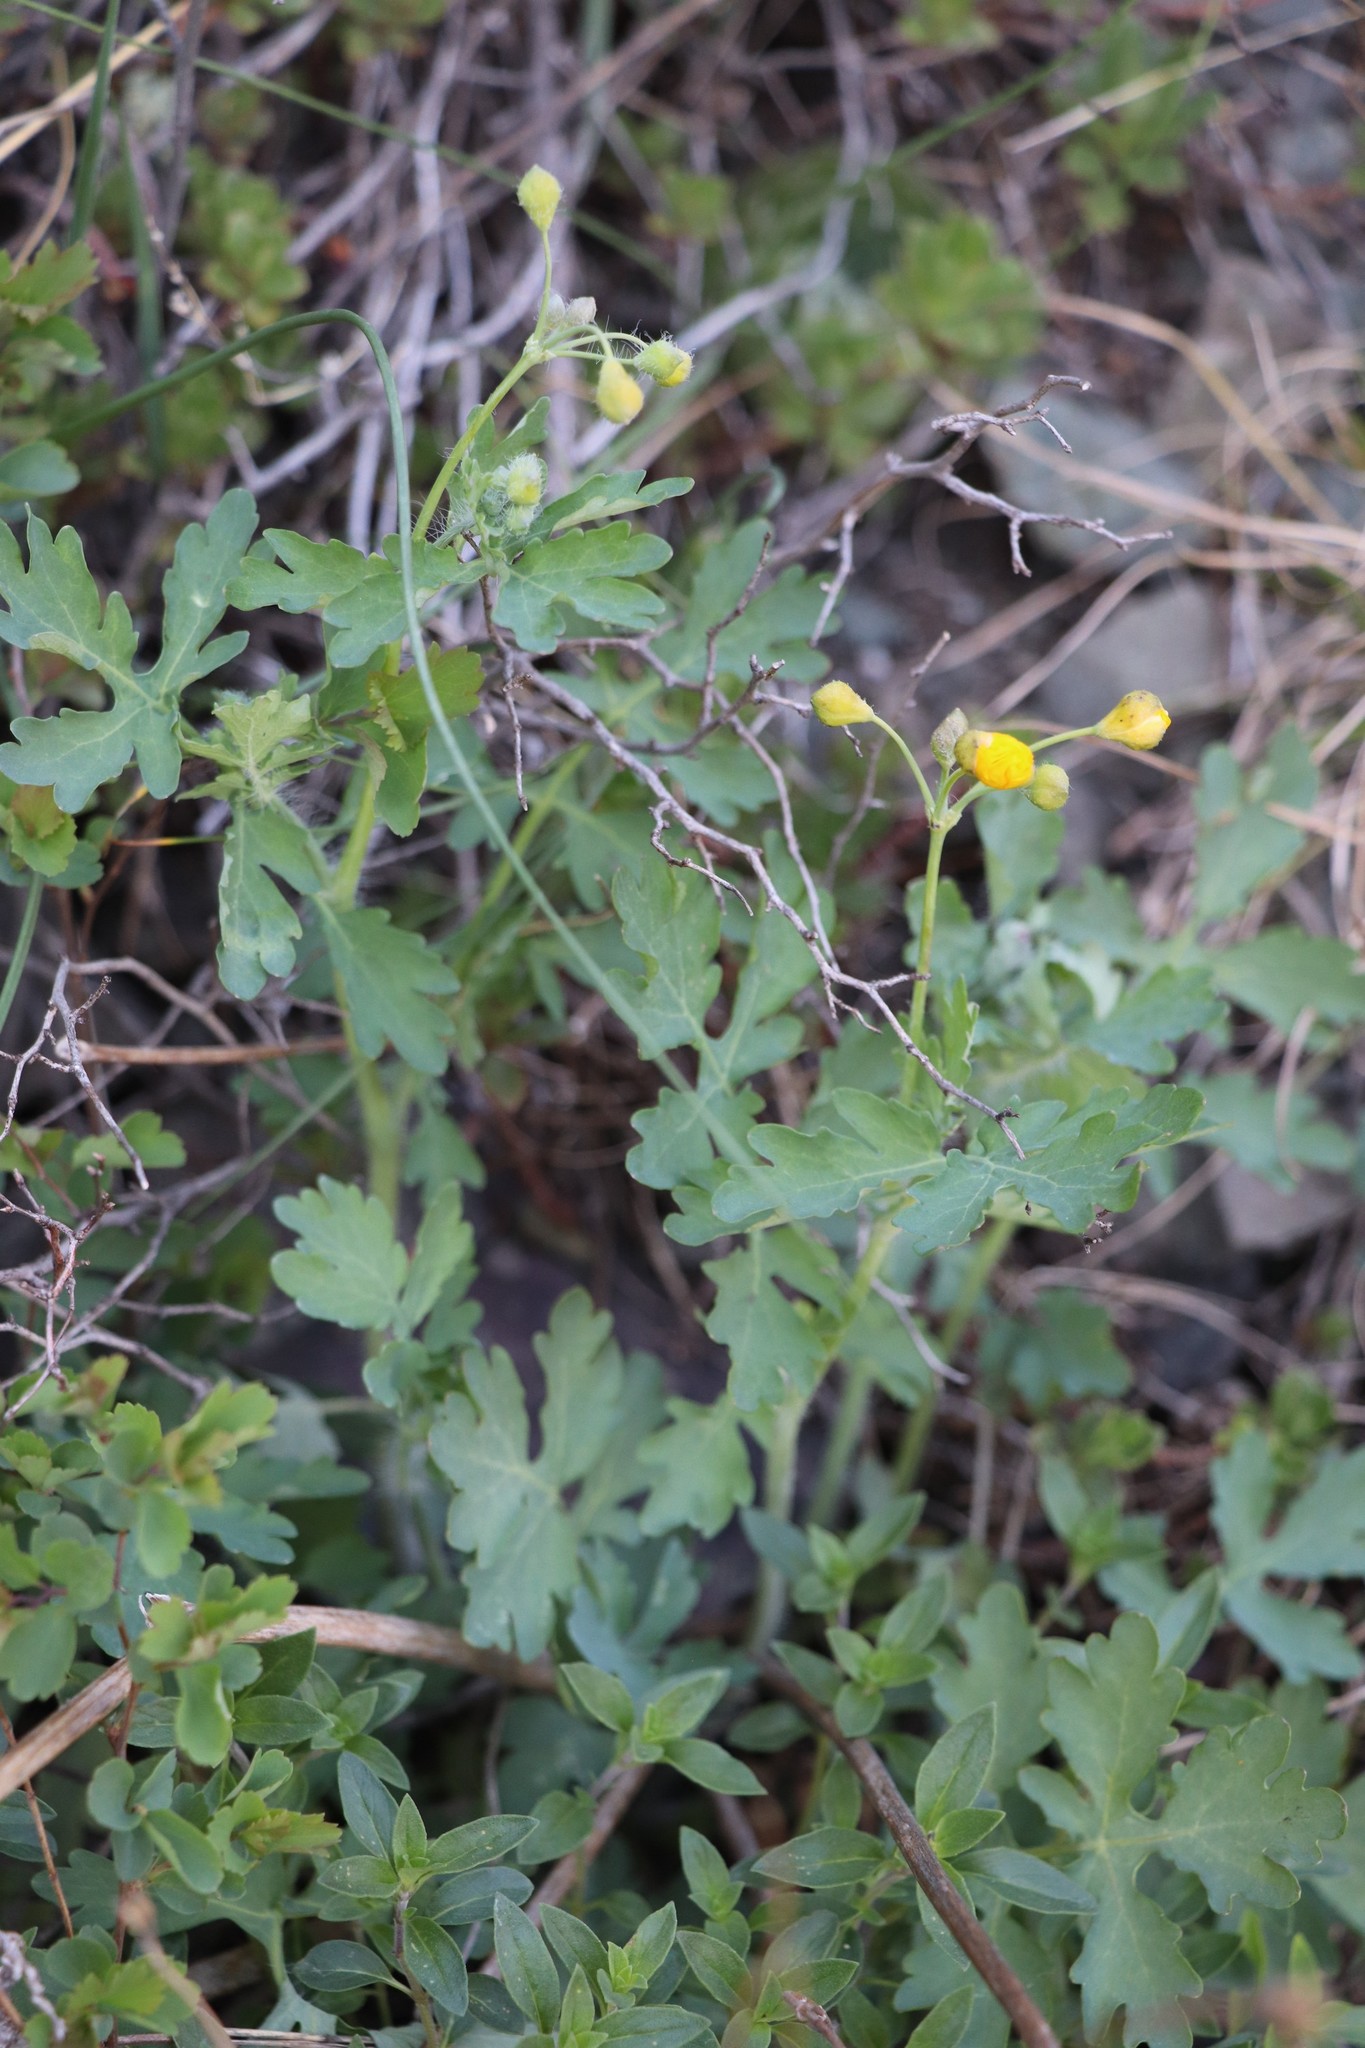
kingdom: Plantae
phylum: Tracheophyta
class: Magnoliopsida
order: Ranunculales
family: Papaveraceae
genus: Chelidonium
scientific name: Chelidonium majus
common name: Greater celandine
